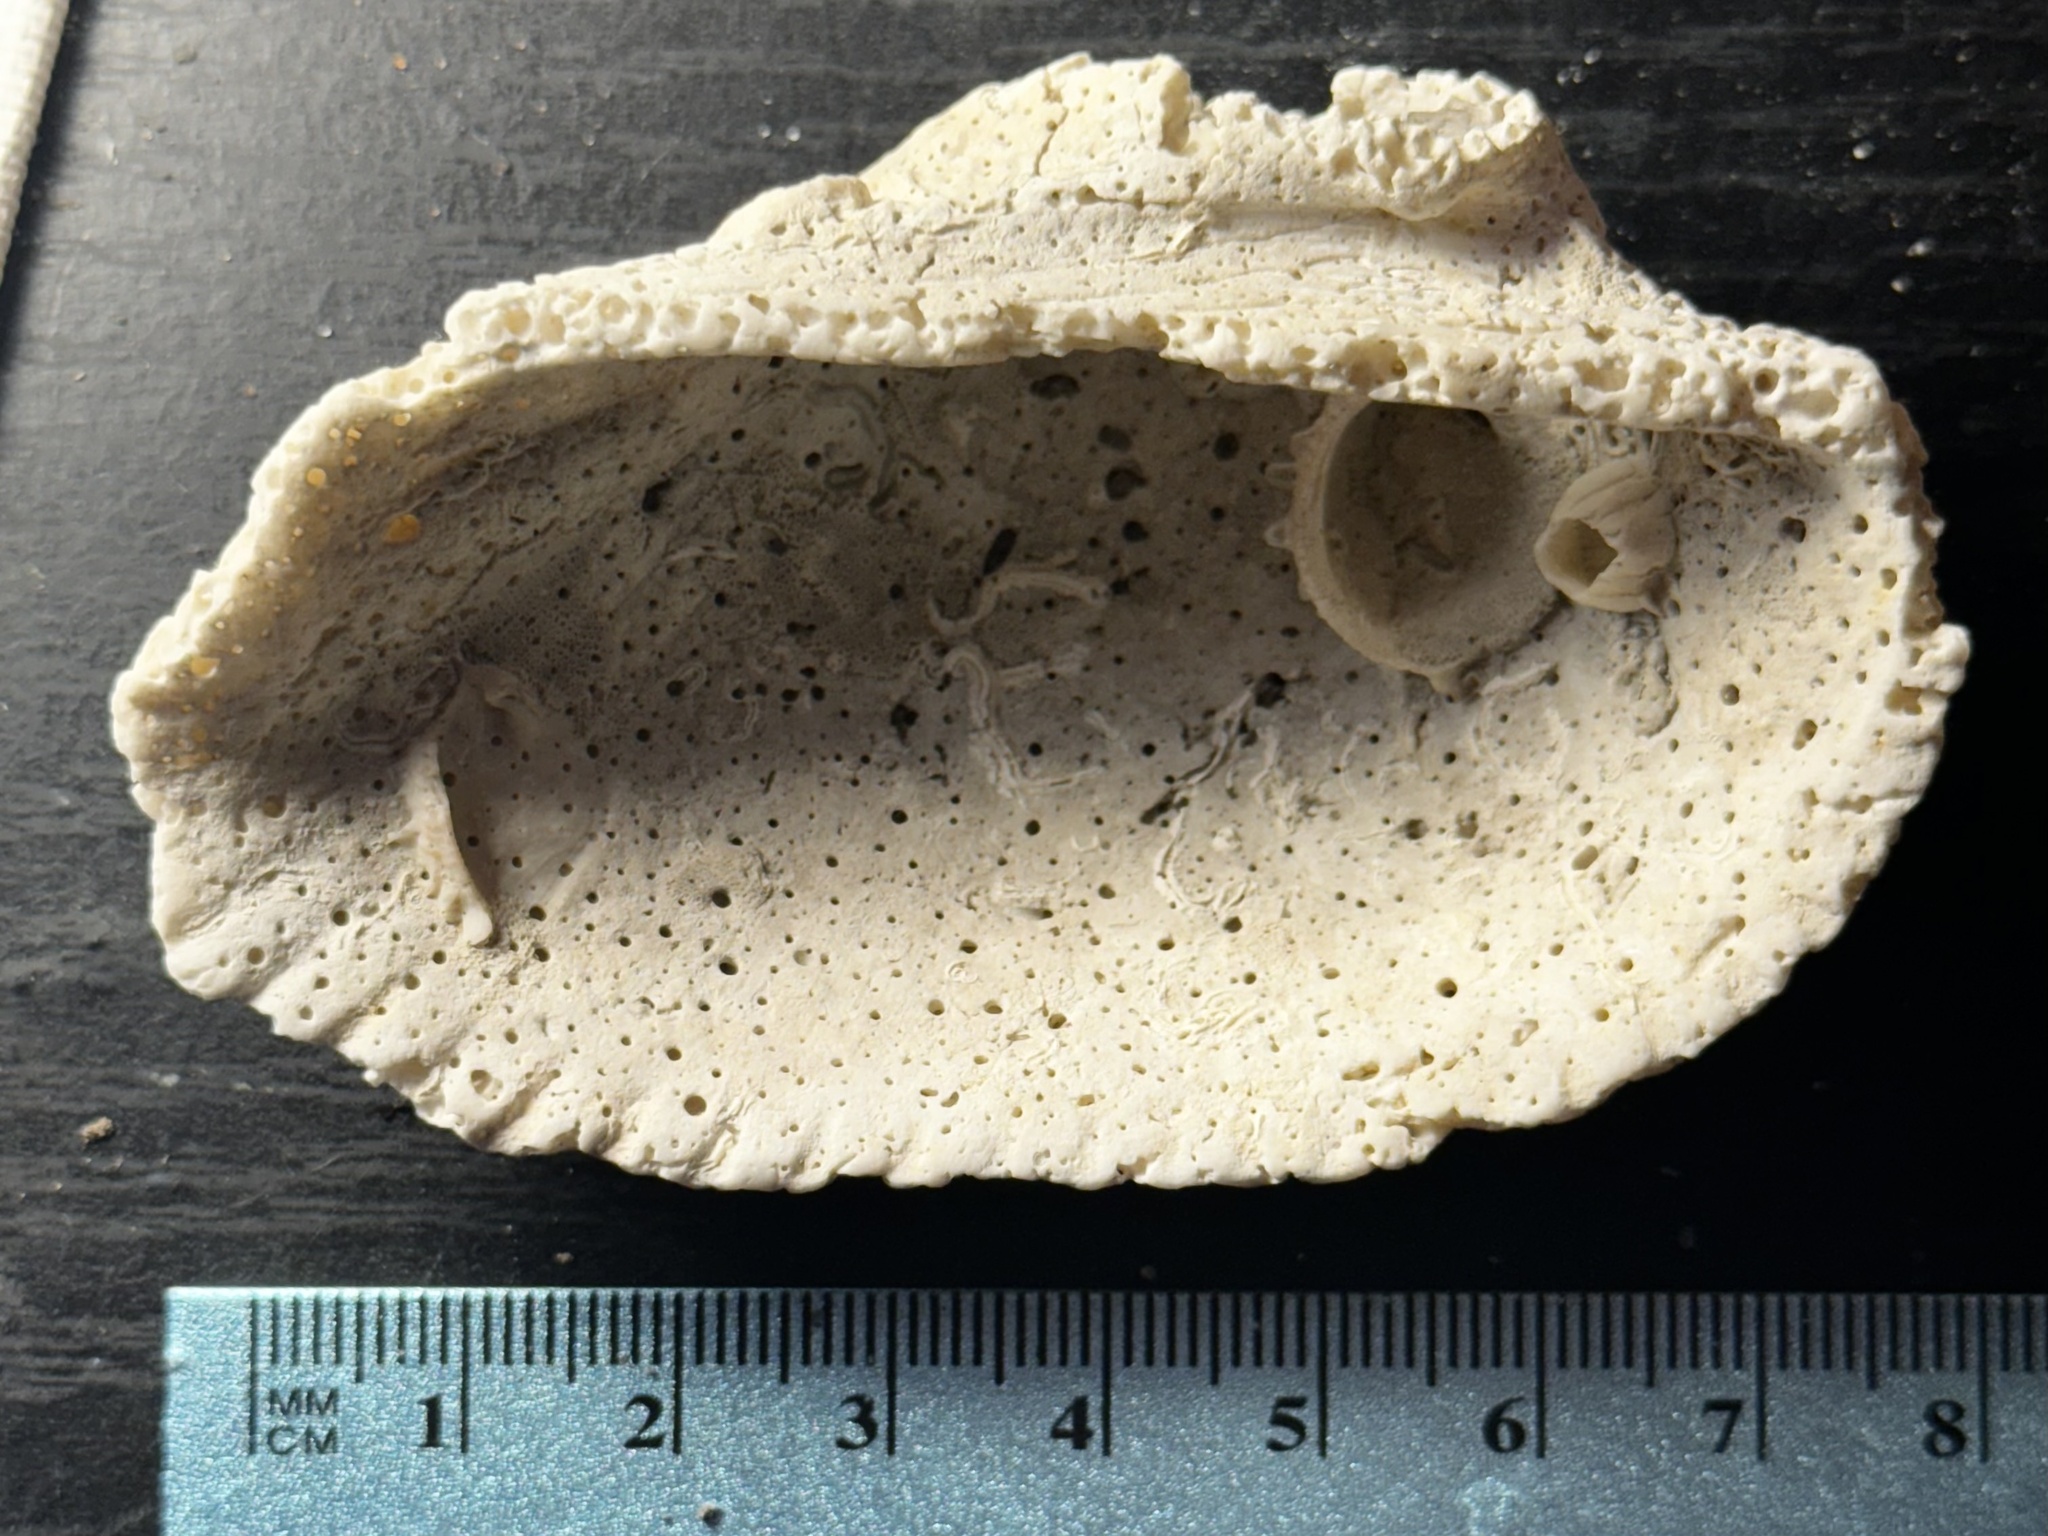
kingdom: Animalia
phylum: Mollusca
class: Bivalvia
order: Arcida
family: Arcidae
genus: Anadara
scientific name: Anadara secticostata
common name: Cut-ribbed ark
